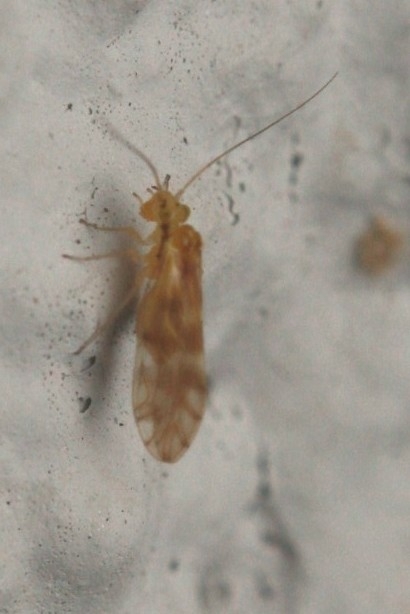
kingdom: Animalia
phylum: Arthropoda
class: Insecta
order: Psocodea
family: Paracaeciliidae
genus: Chilenocaecilius
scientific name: Chilenocaecilius ornatipennis
